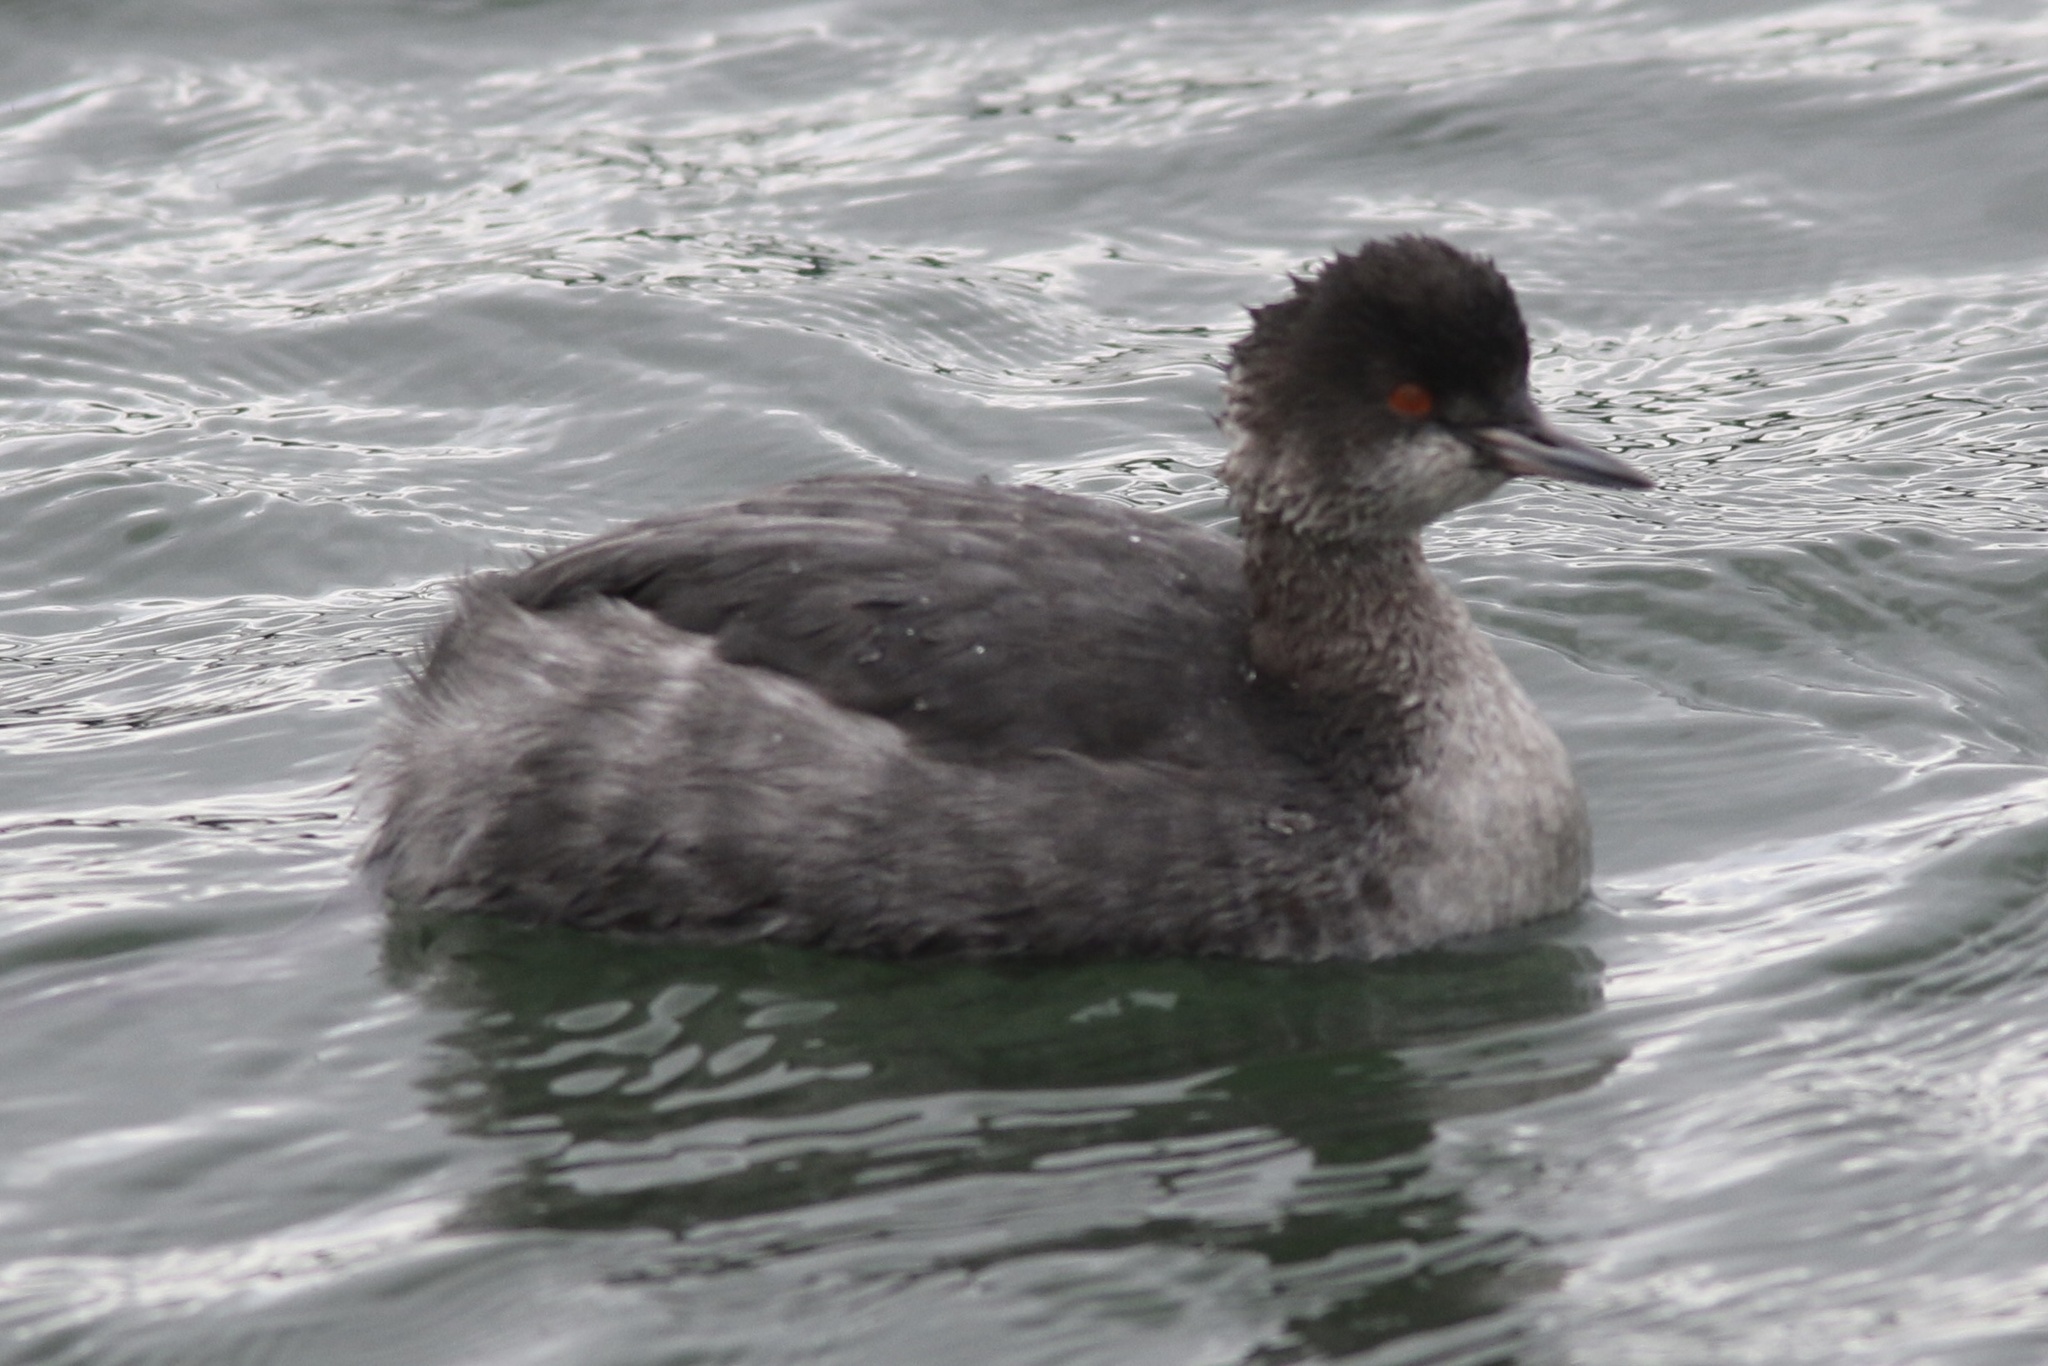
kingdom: Animalia
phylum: Chordata
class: Aves
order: Podicipediformes
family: Podicipedidae
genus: Podiceps
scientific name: Podiceps nigricollis
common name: Black-necked grebe
